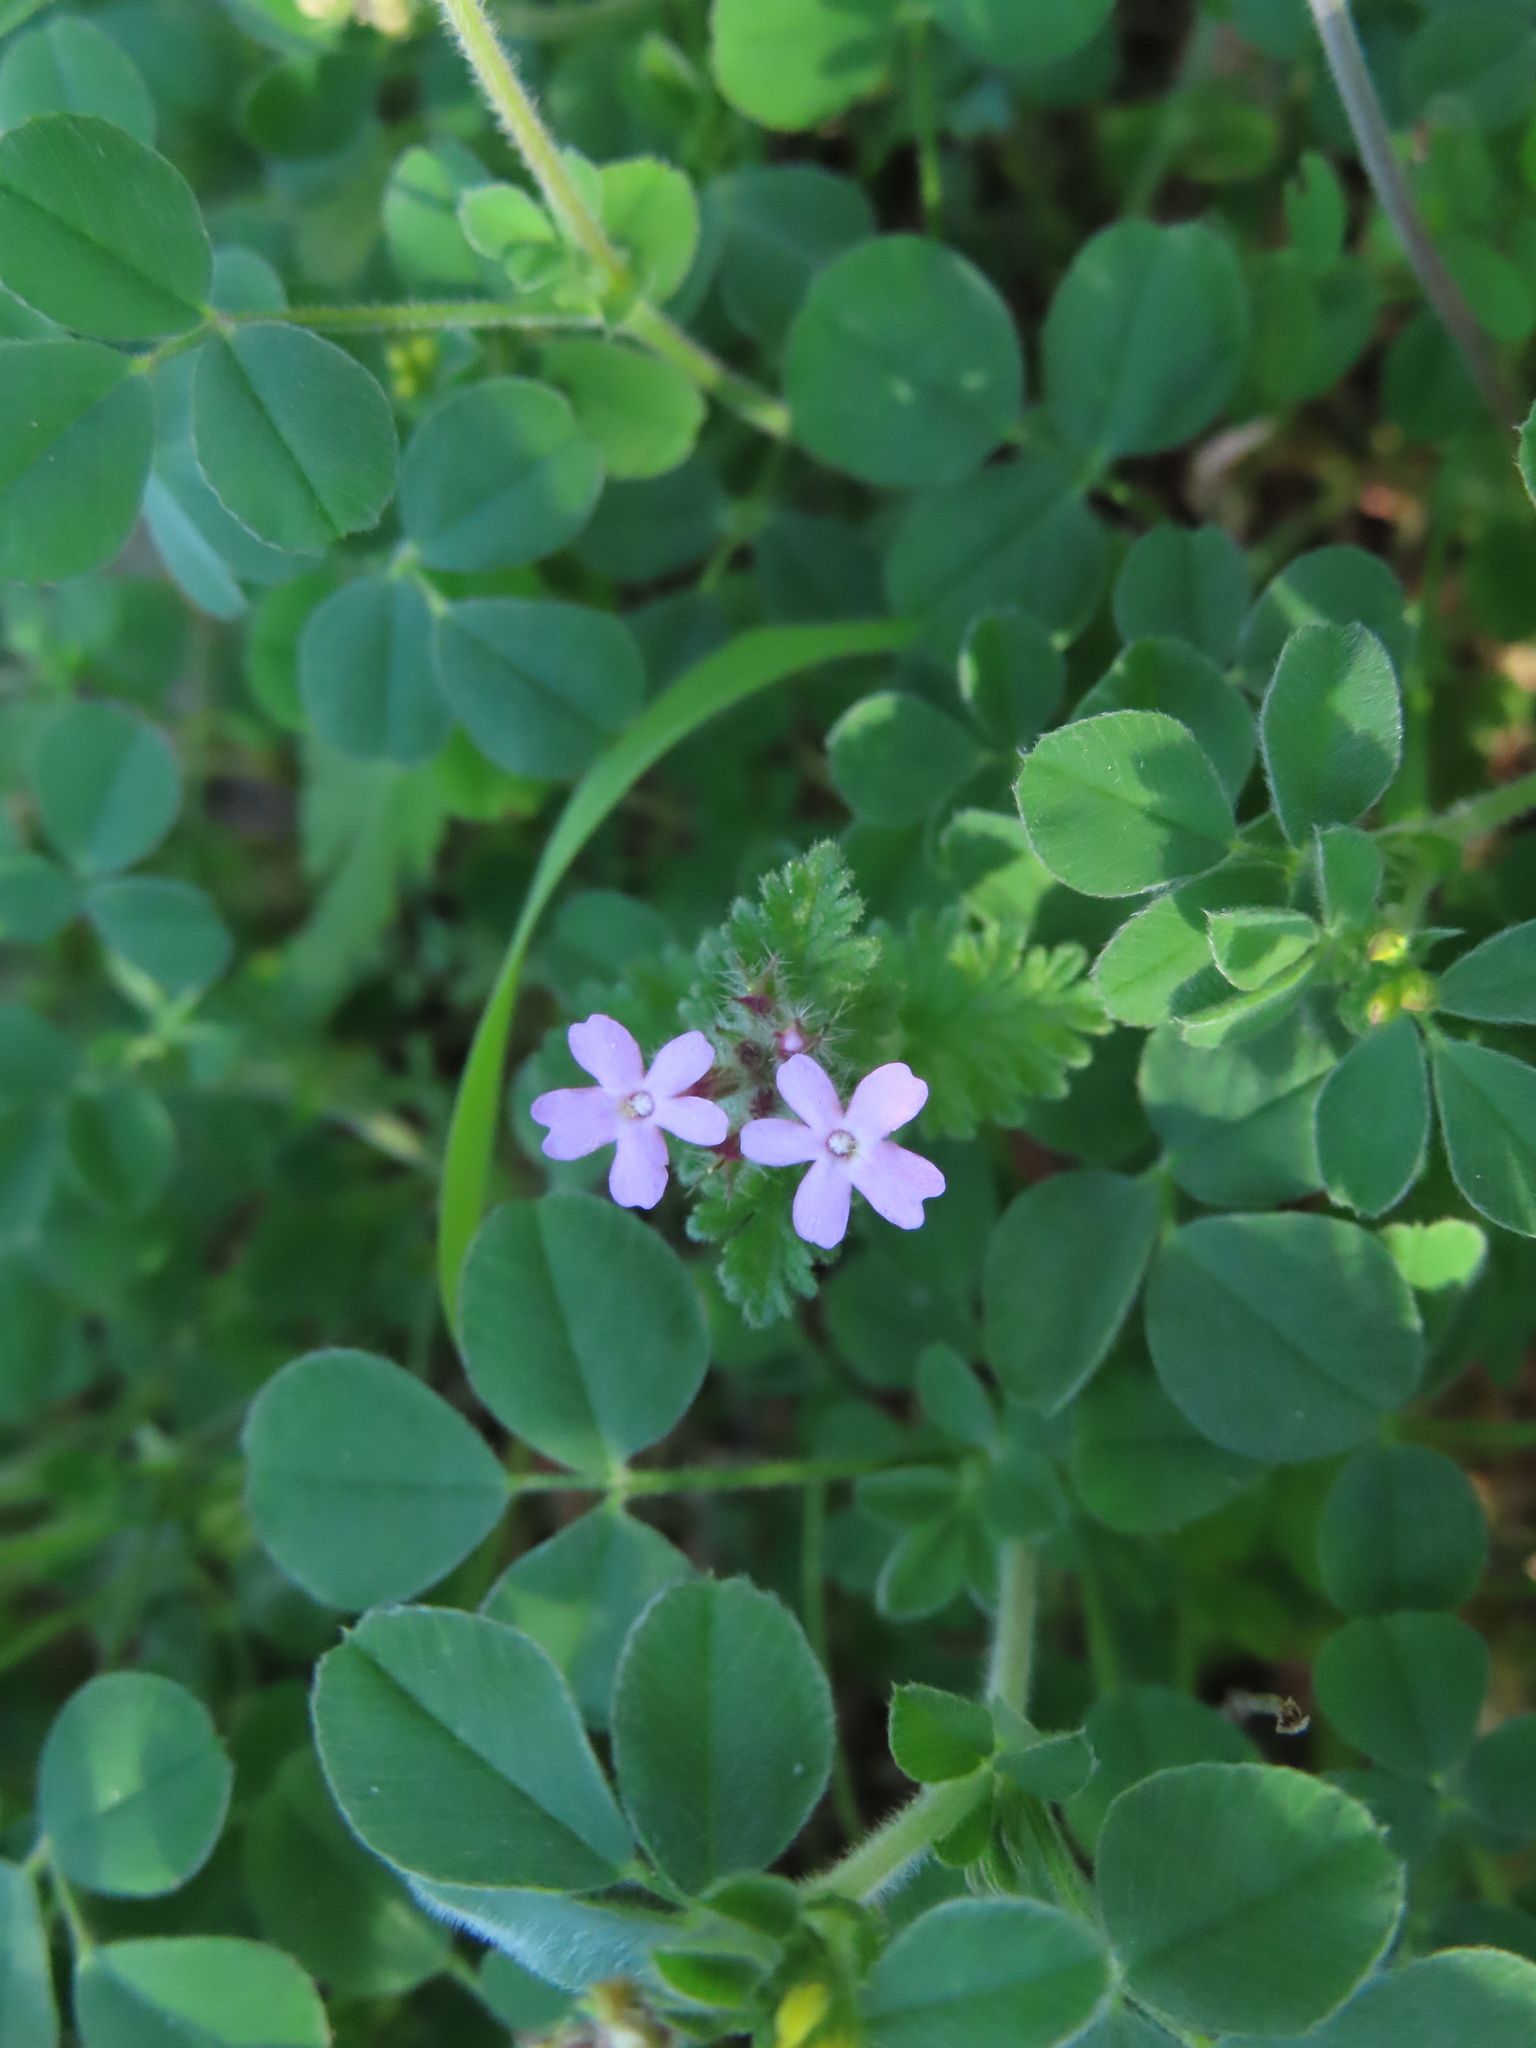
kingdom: Plantae
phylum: Tracheophyta
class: Magnoliopsida
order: Lamiales
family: Verbenaceae
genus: Verbena
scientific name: Verbena pumila
